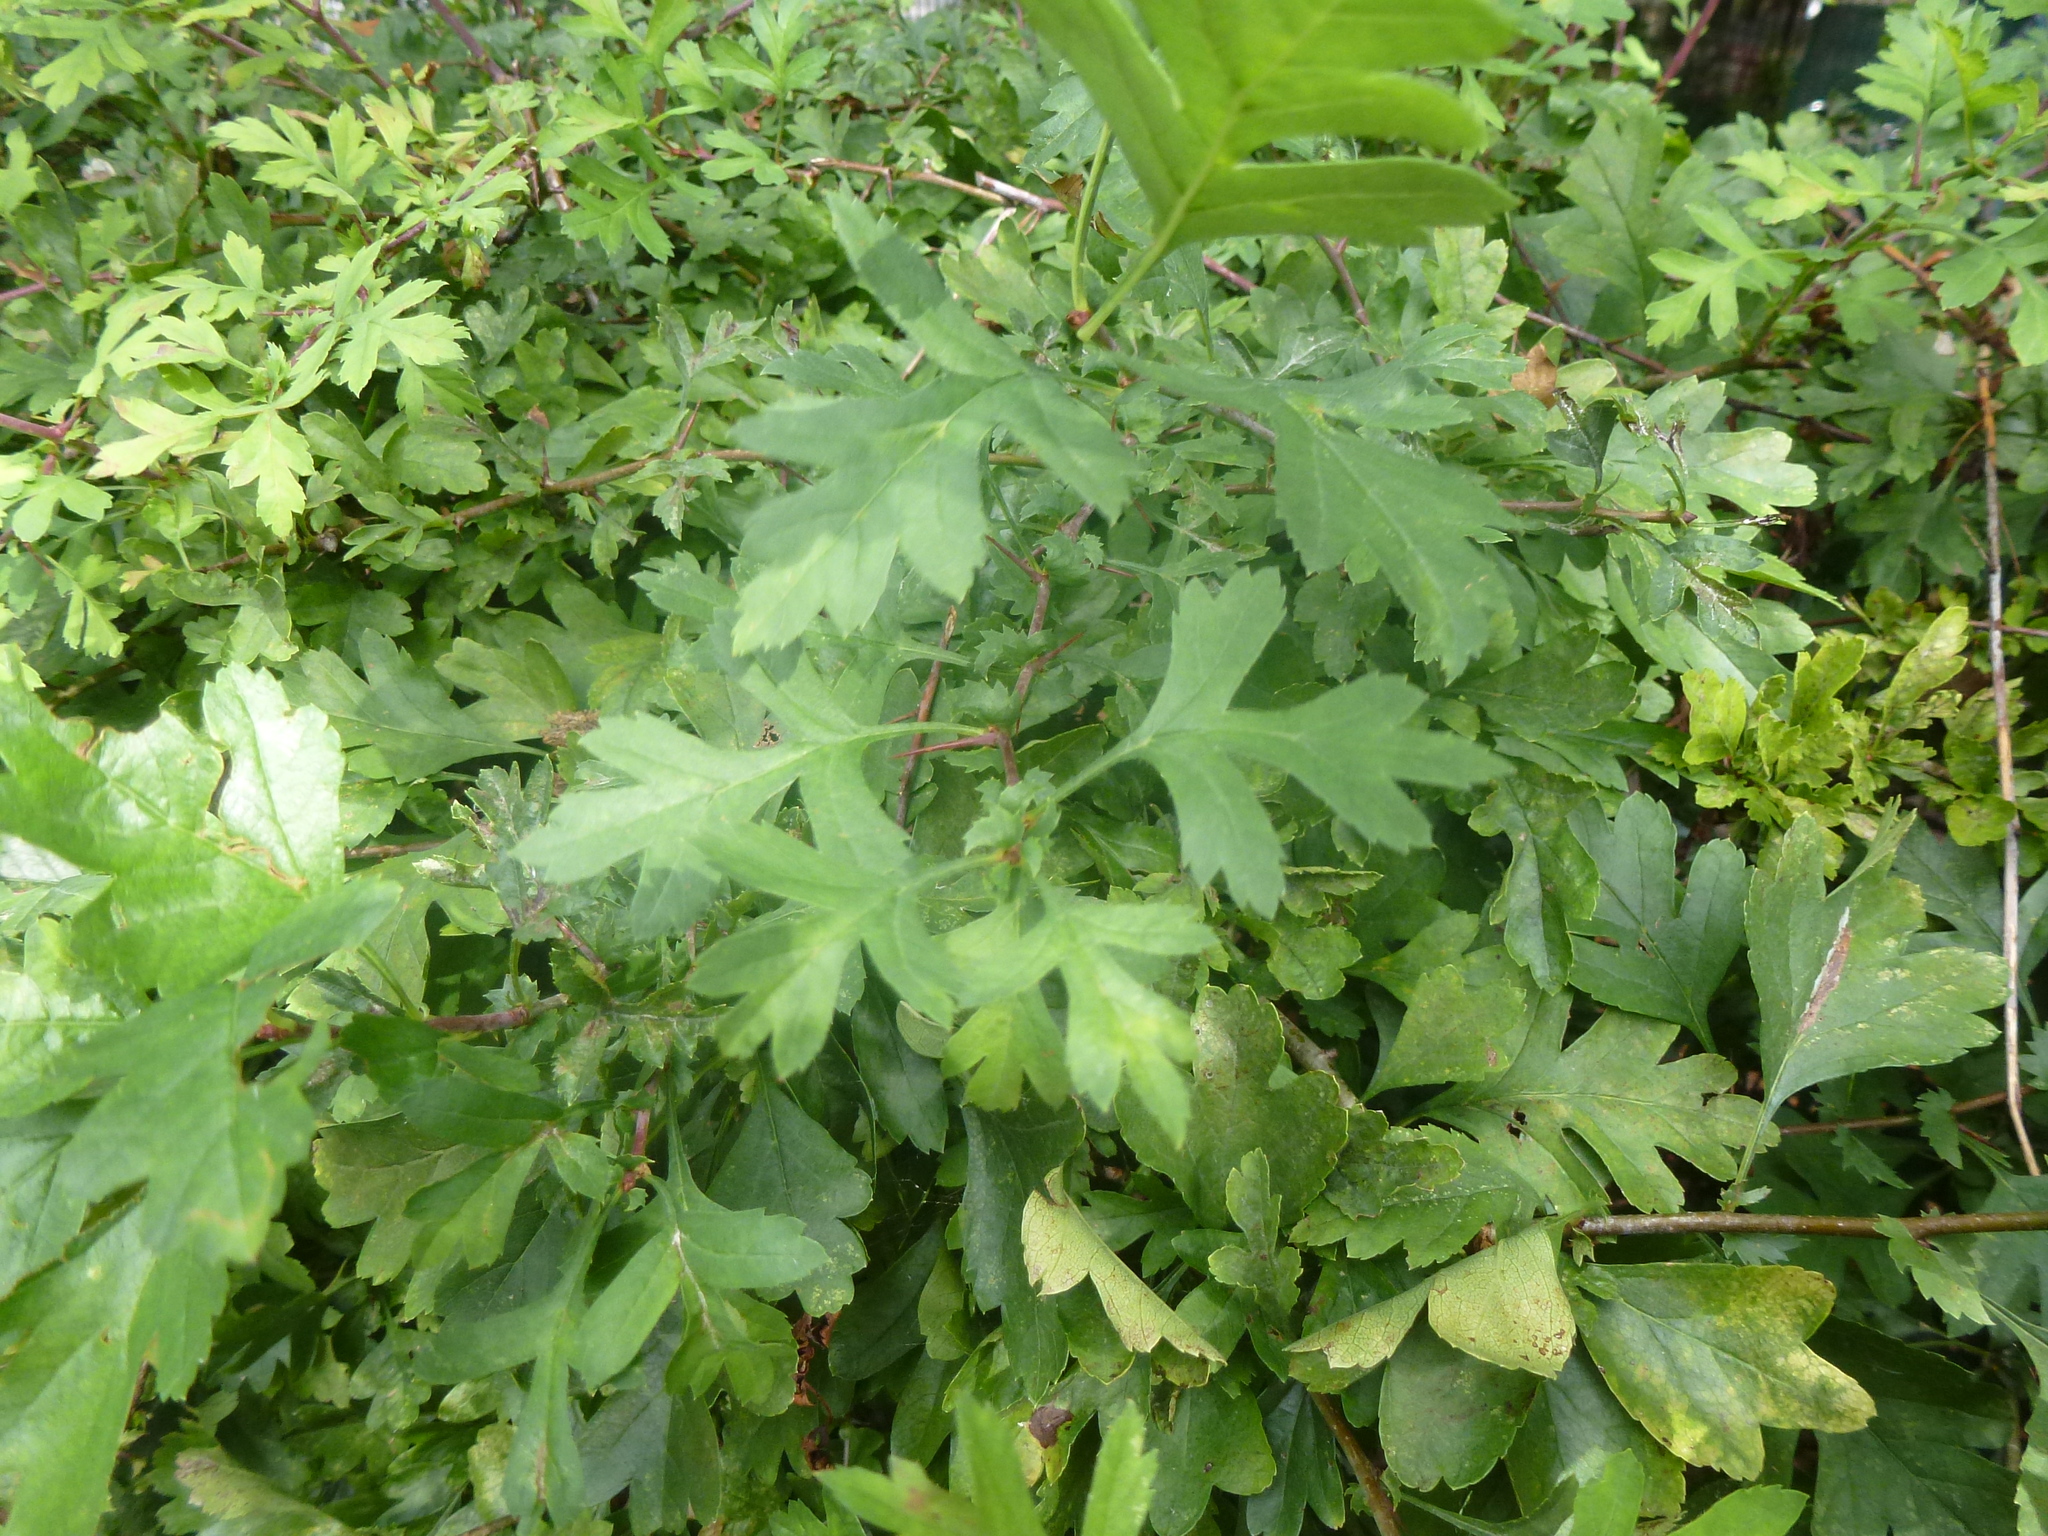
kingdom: Plantae
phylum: Tracheophyta
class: Magnoliopsida
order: Rosales
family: Rosaceae
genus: Crataegus
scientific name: Crataegus monogyna
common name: Hawthorn
